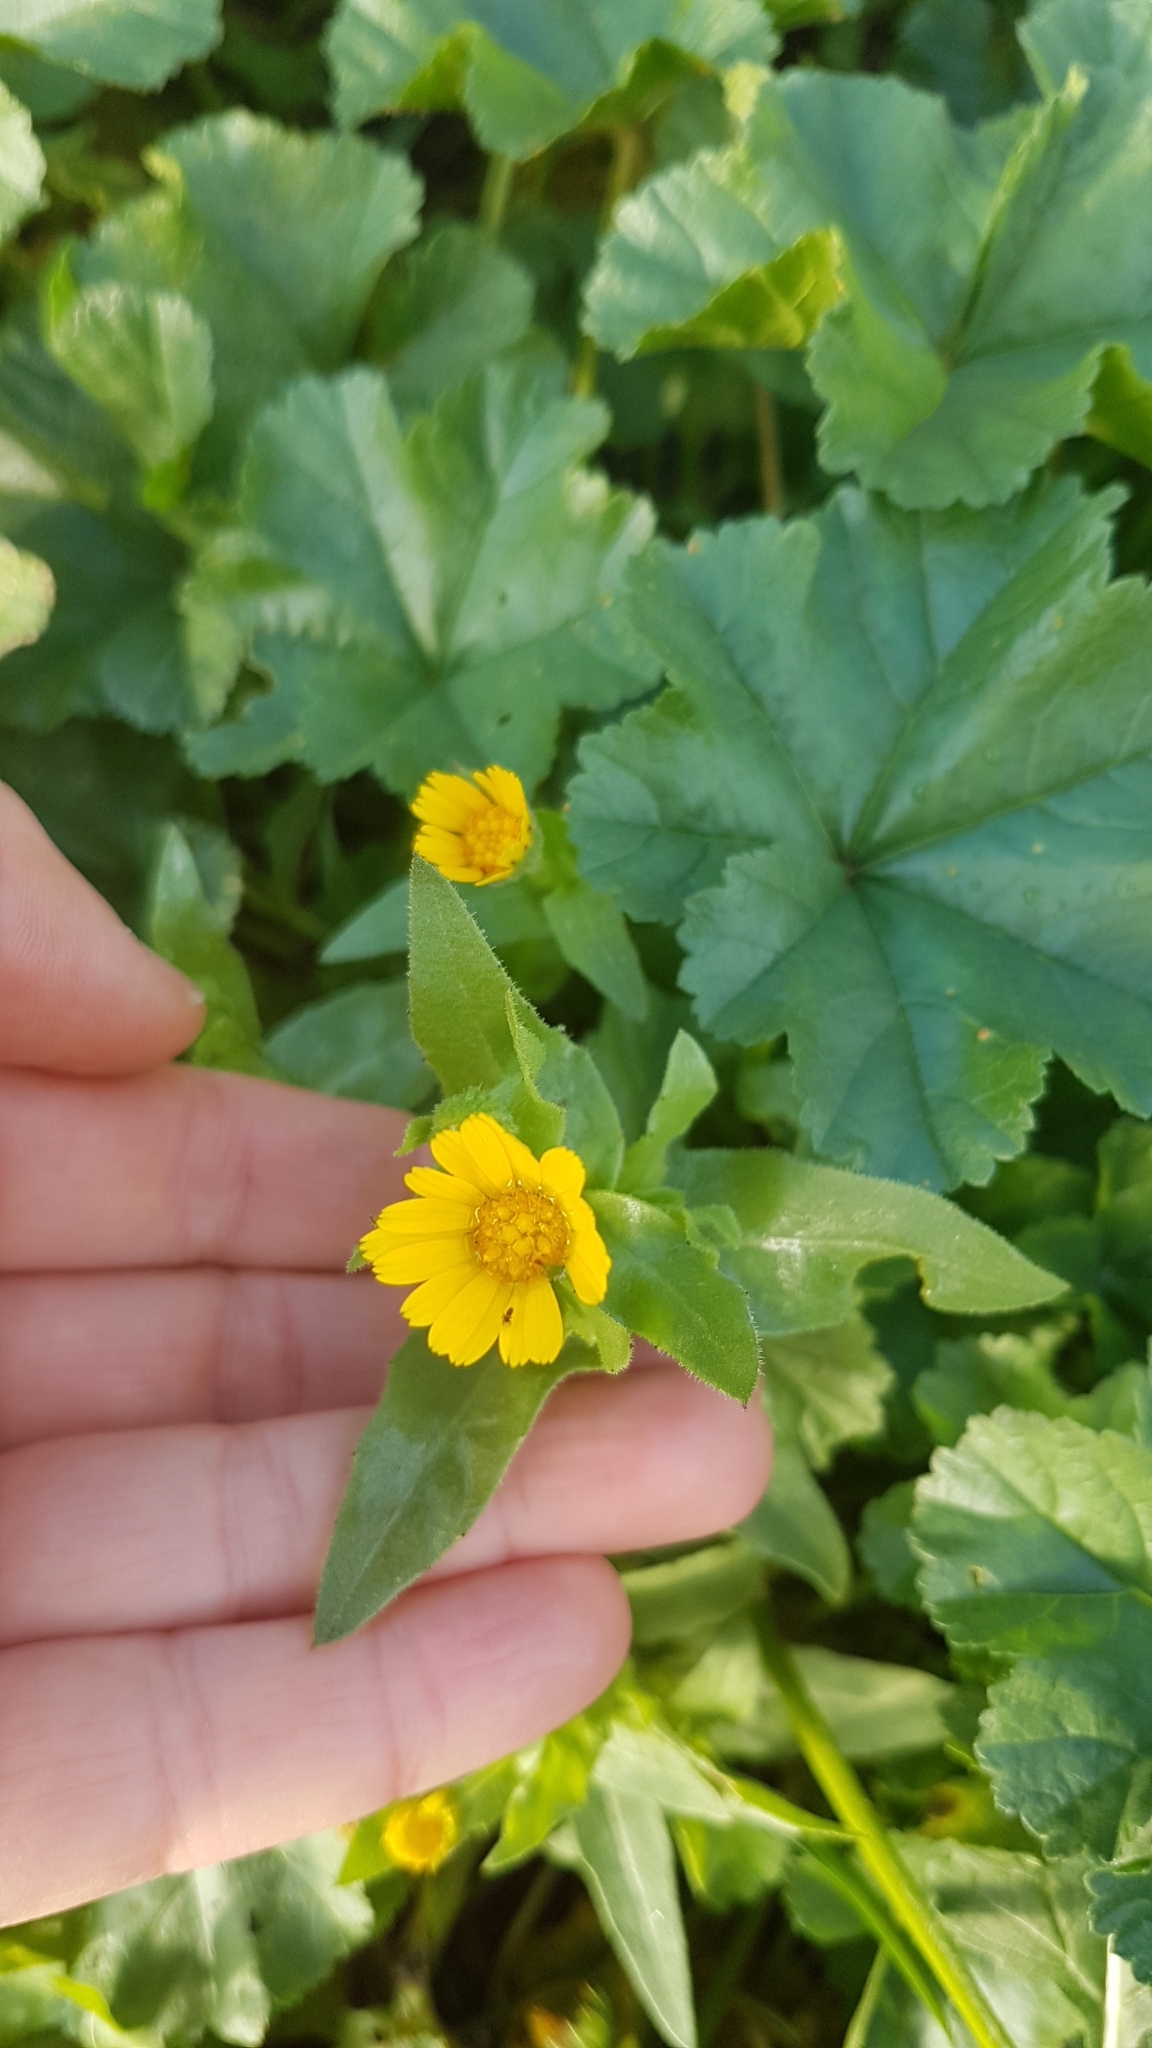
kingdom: Plantae
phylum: Tracheophyta
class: Magnoliopsida
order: Asterales
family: Asteraceae
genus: Calendula
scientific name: Calendula arvensis
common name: Field marigold
